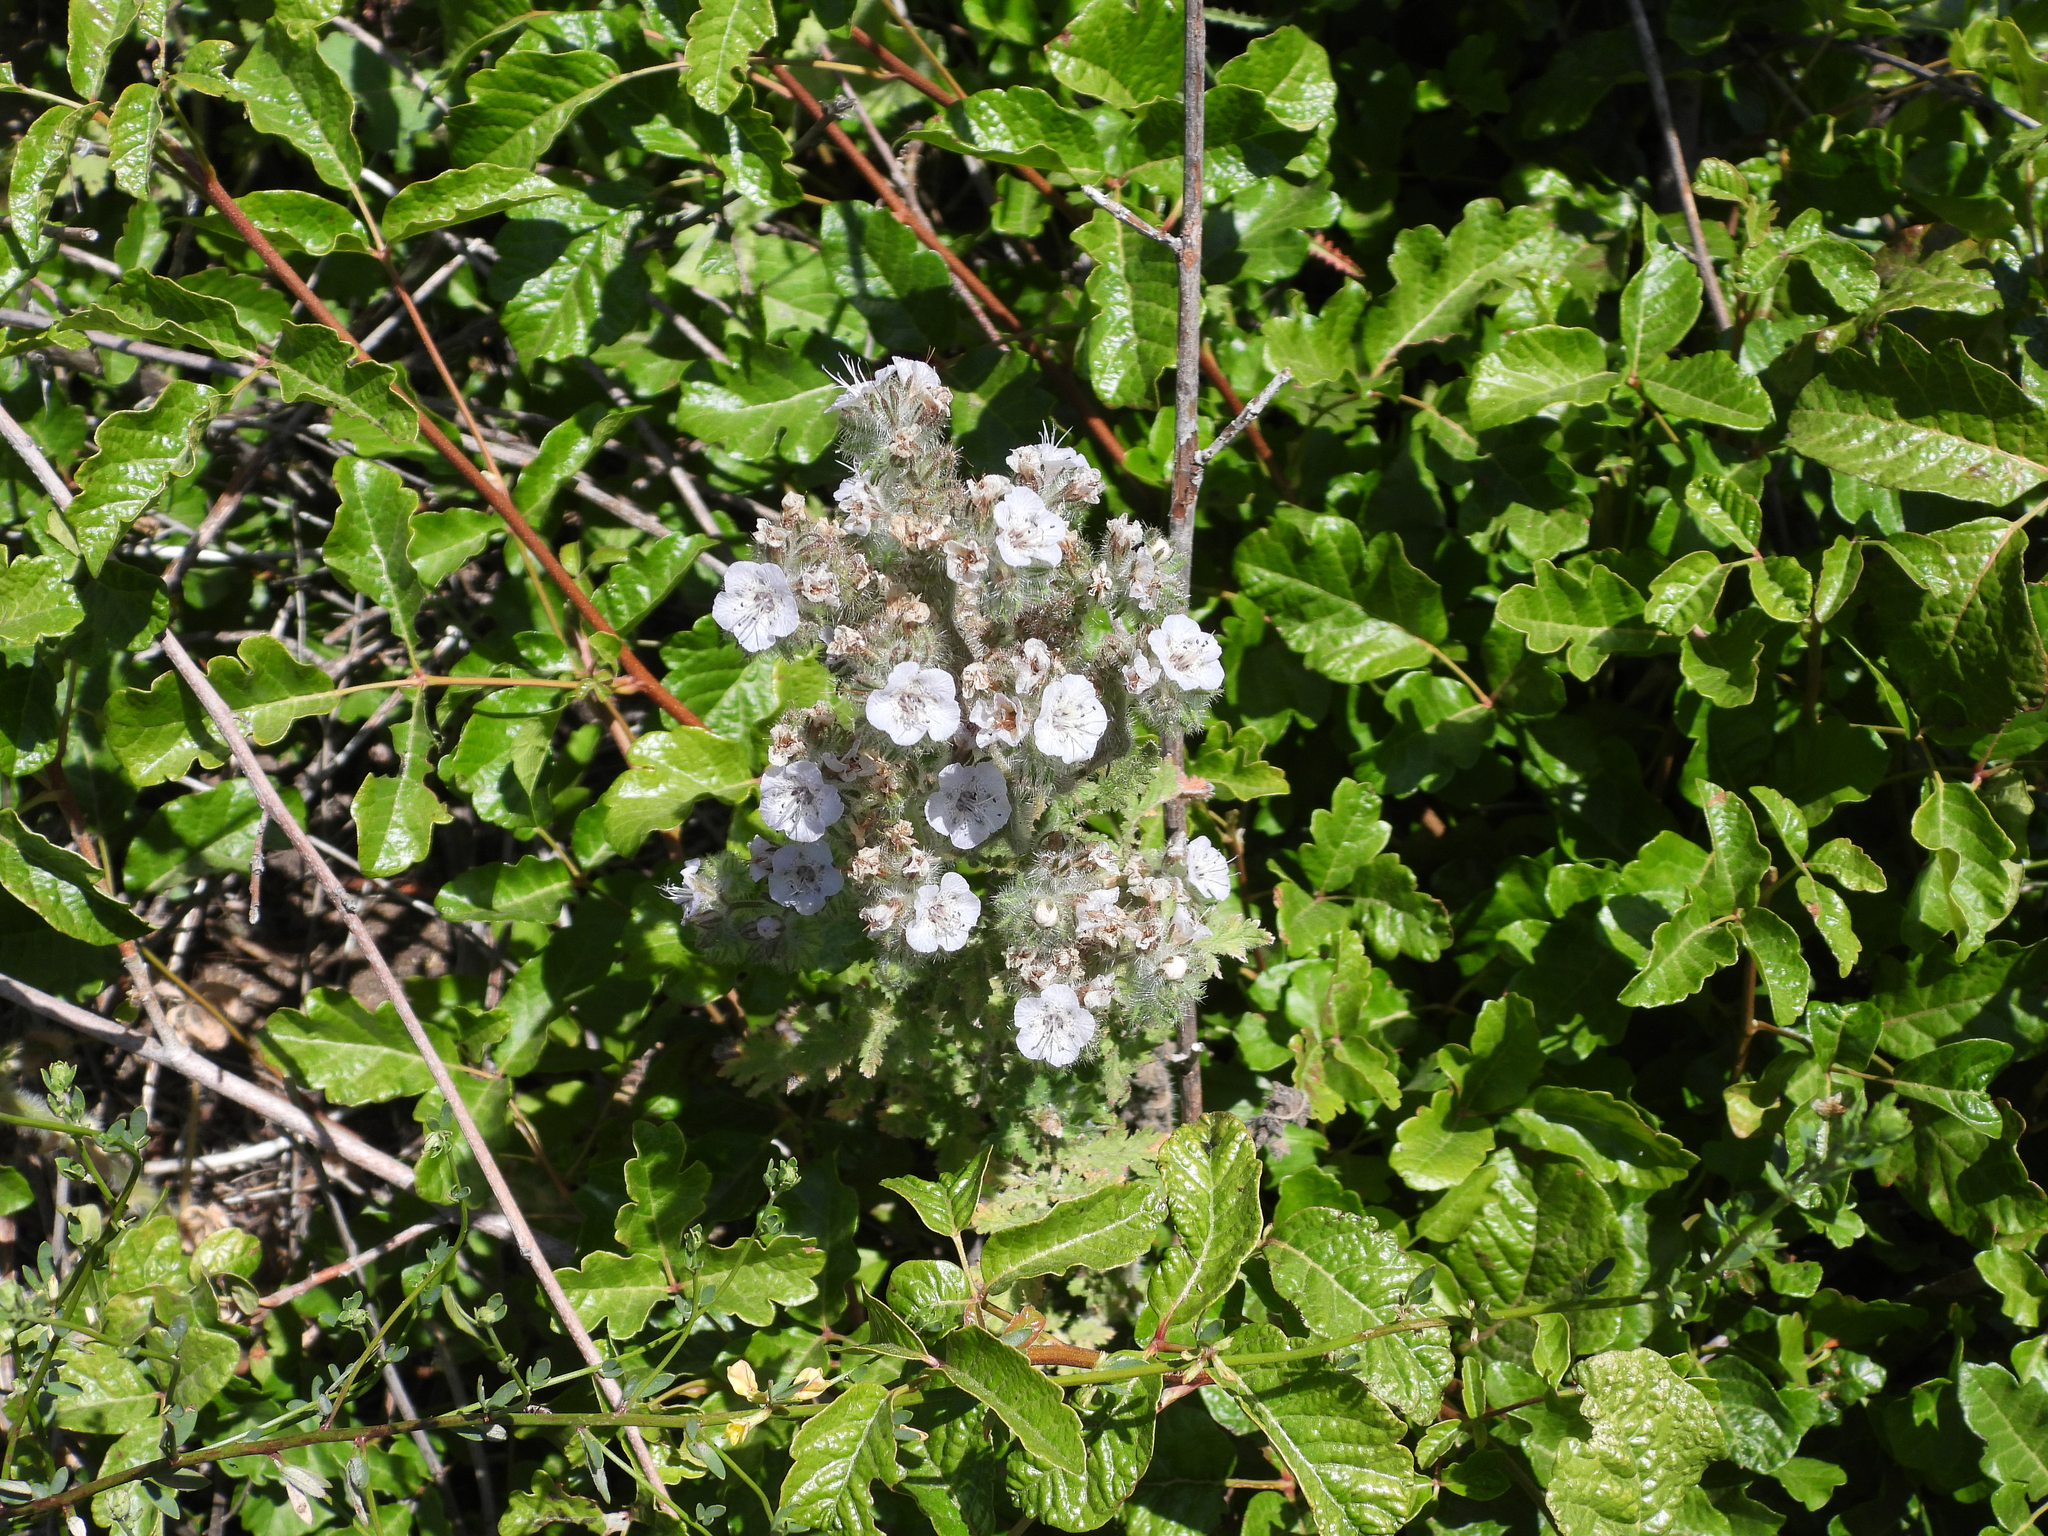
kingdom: Plantae
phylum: Tracheophyta
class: Magnoliopsida
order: Boraginales
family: Hydrophyllaceae
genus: Phacelia
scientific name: Phacelia cicutaria
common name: Caterpillar phacelia
